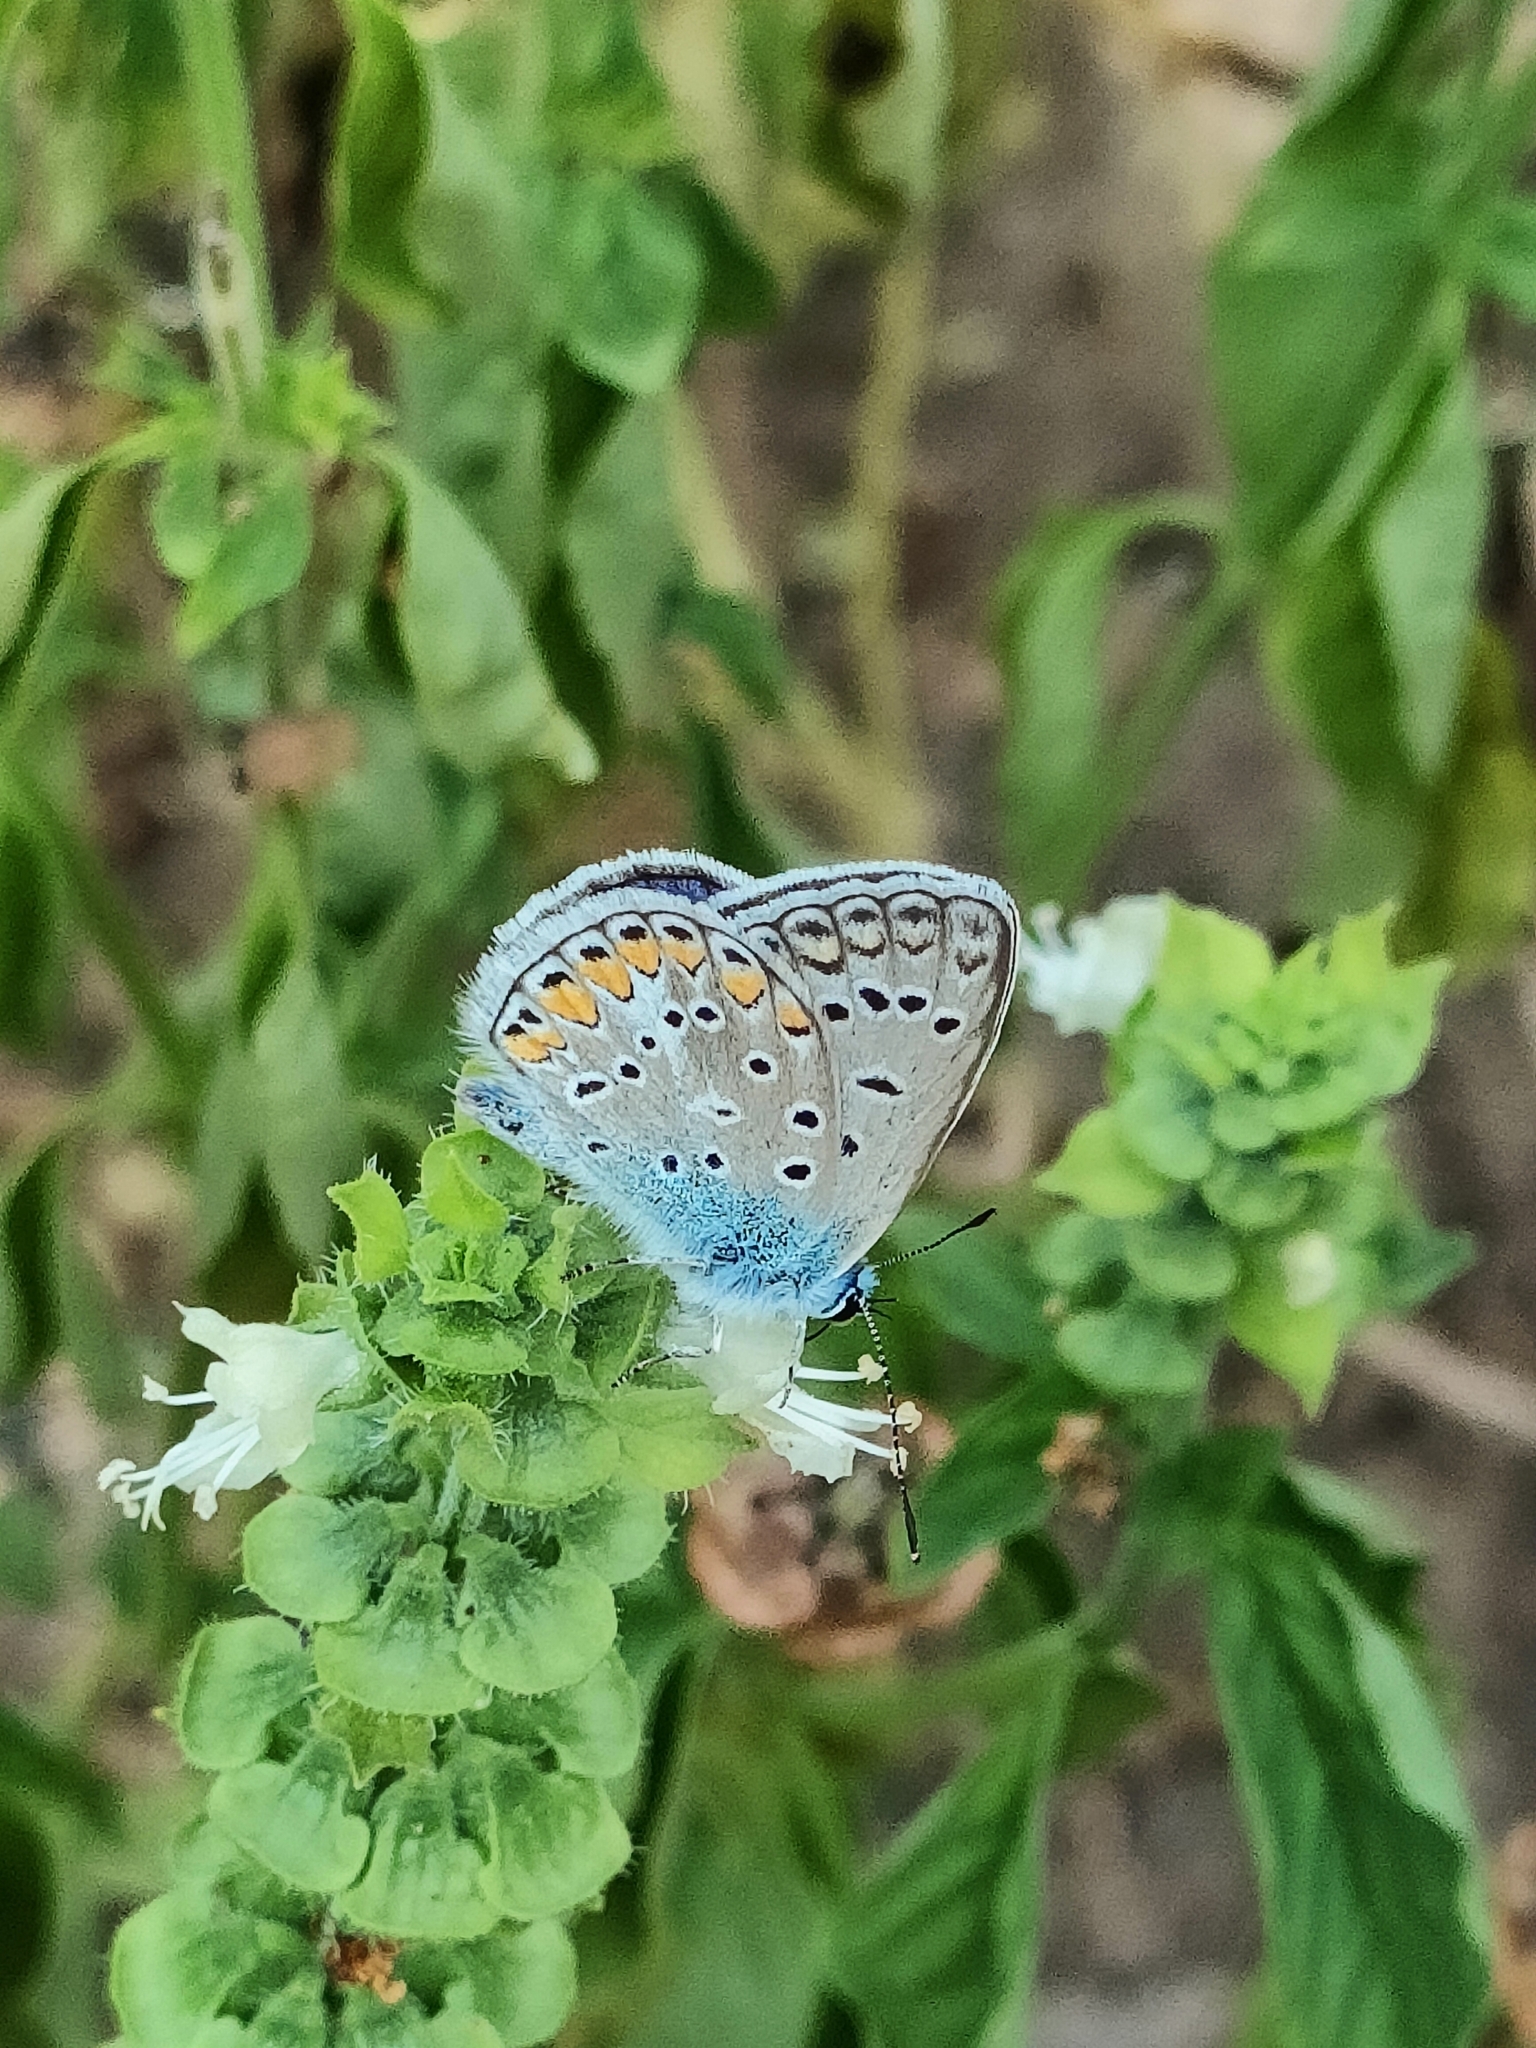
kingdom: Animalia
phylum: Arthropoda
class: Insecta
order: Lepidoptera
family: Lycaenidae
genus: Polyommatus
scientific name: Polyommatus icarus
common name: Common blue
